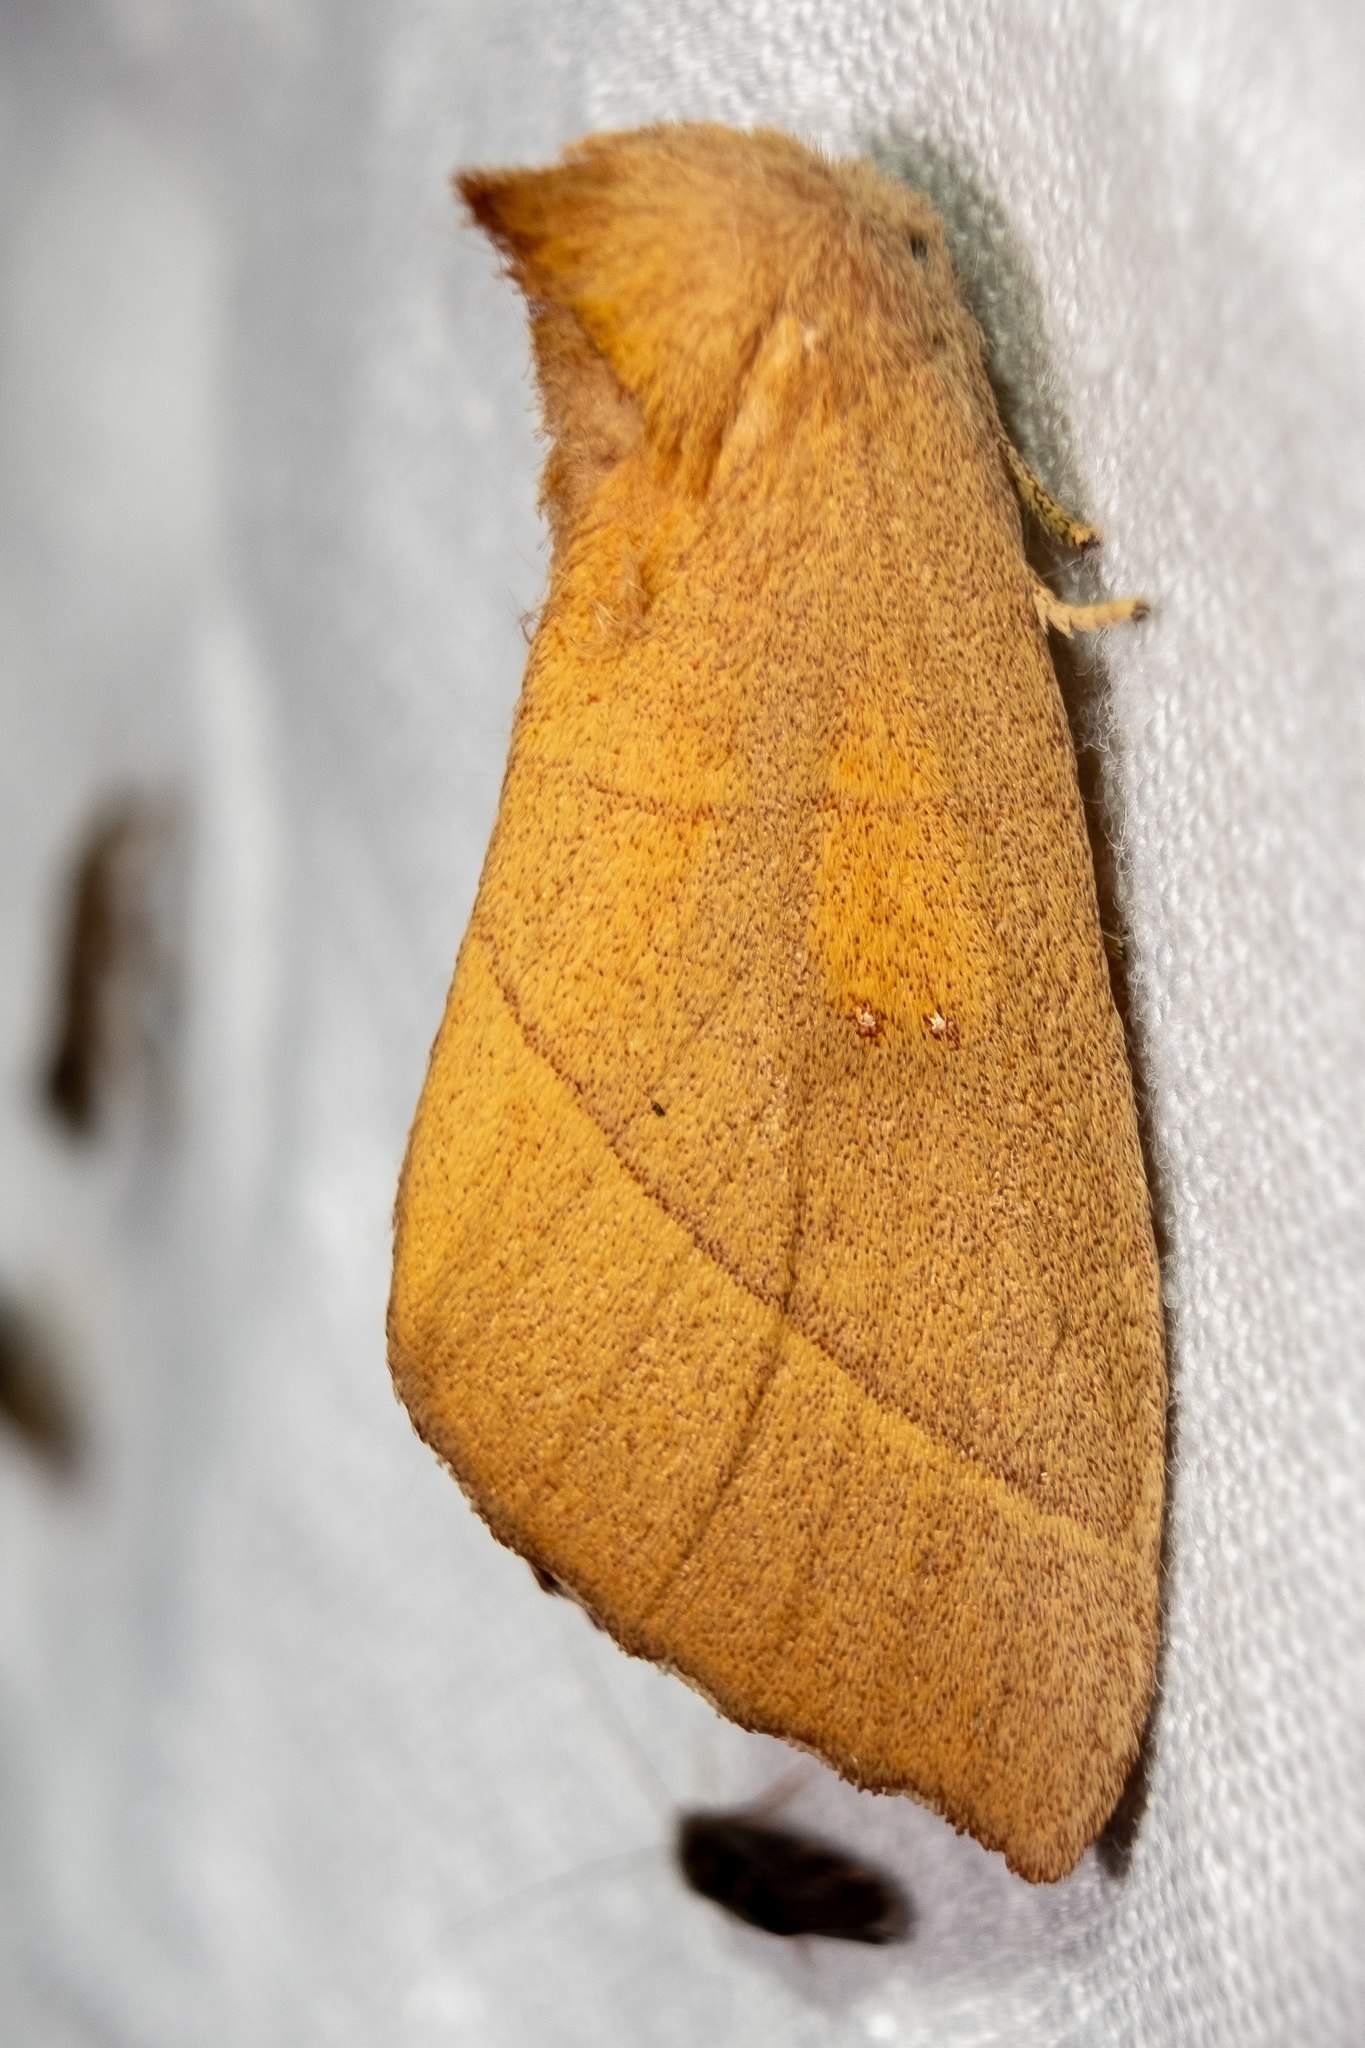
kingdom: Animalia
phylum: Arthropoda
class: Insecta
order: Lepidoptera
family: Notodontidae
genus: Nadata
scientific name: Nadata gibbosa
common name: White-dotted prominent
